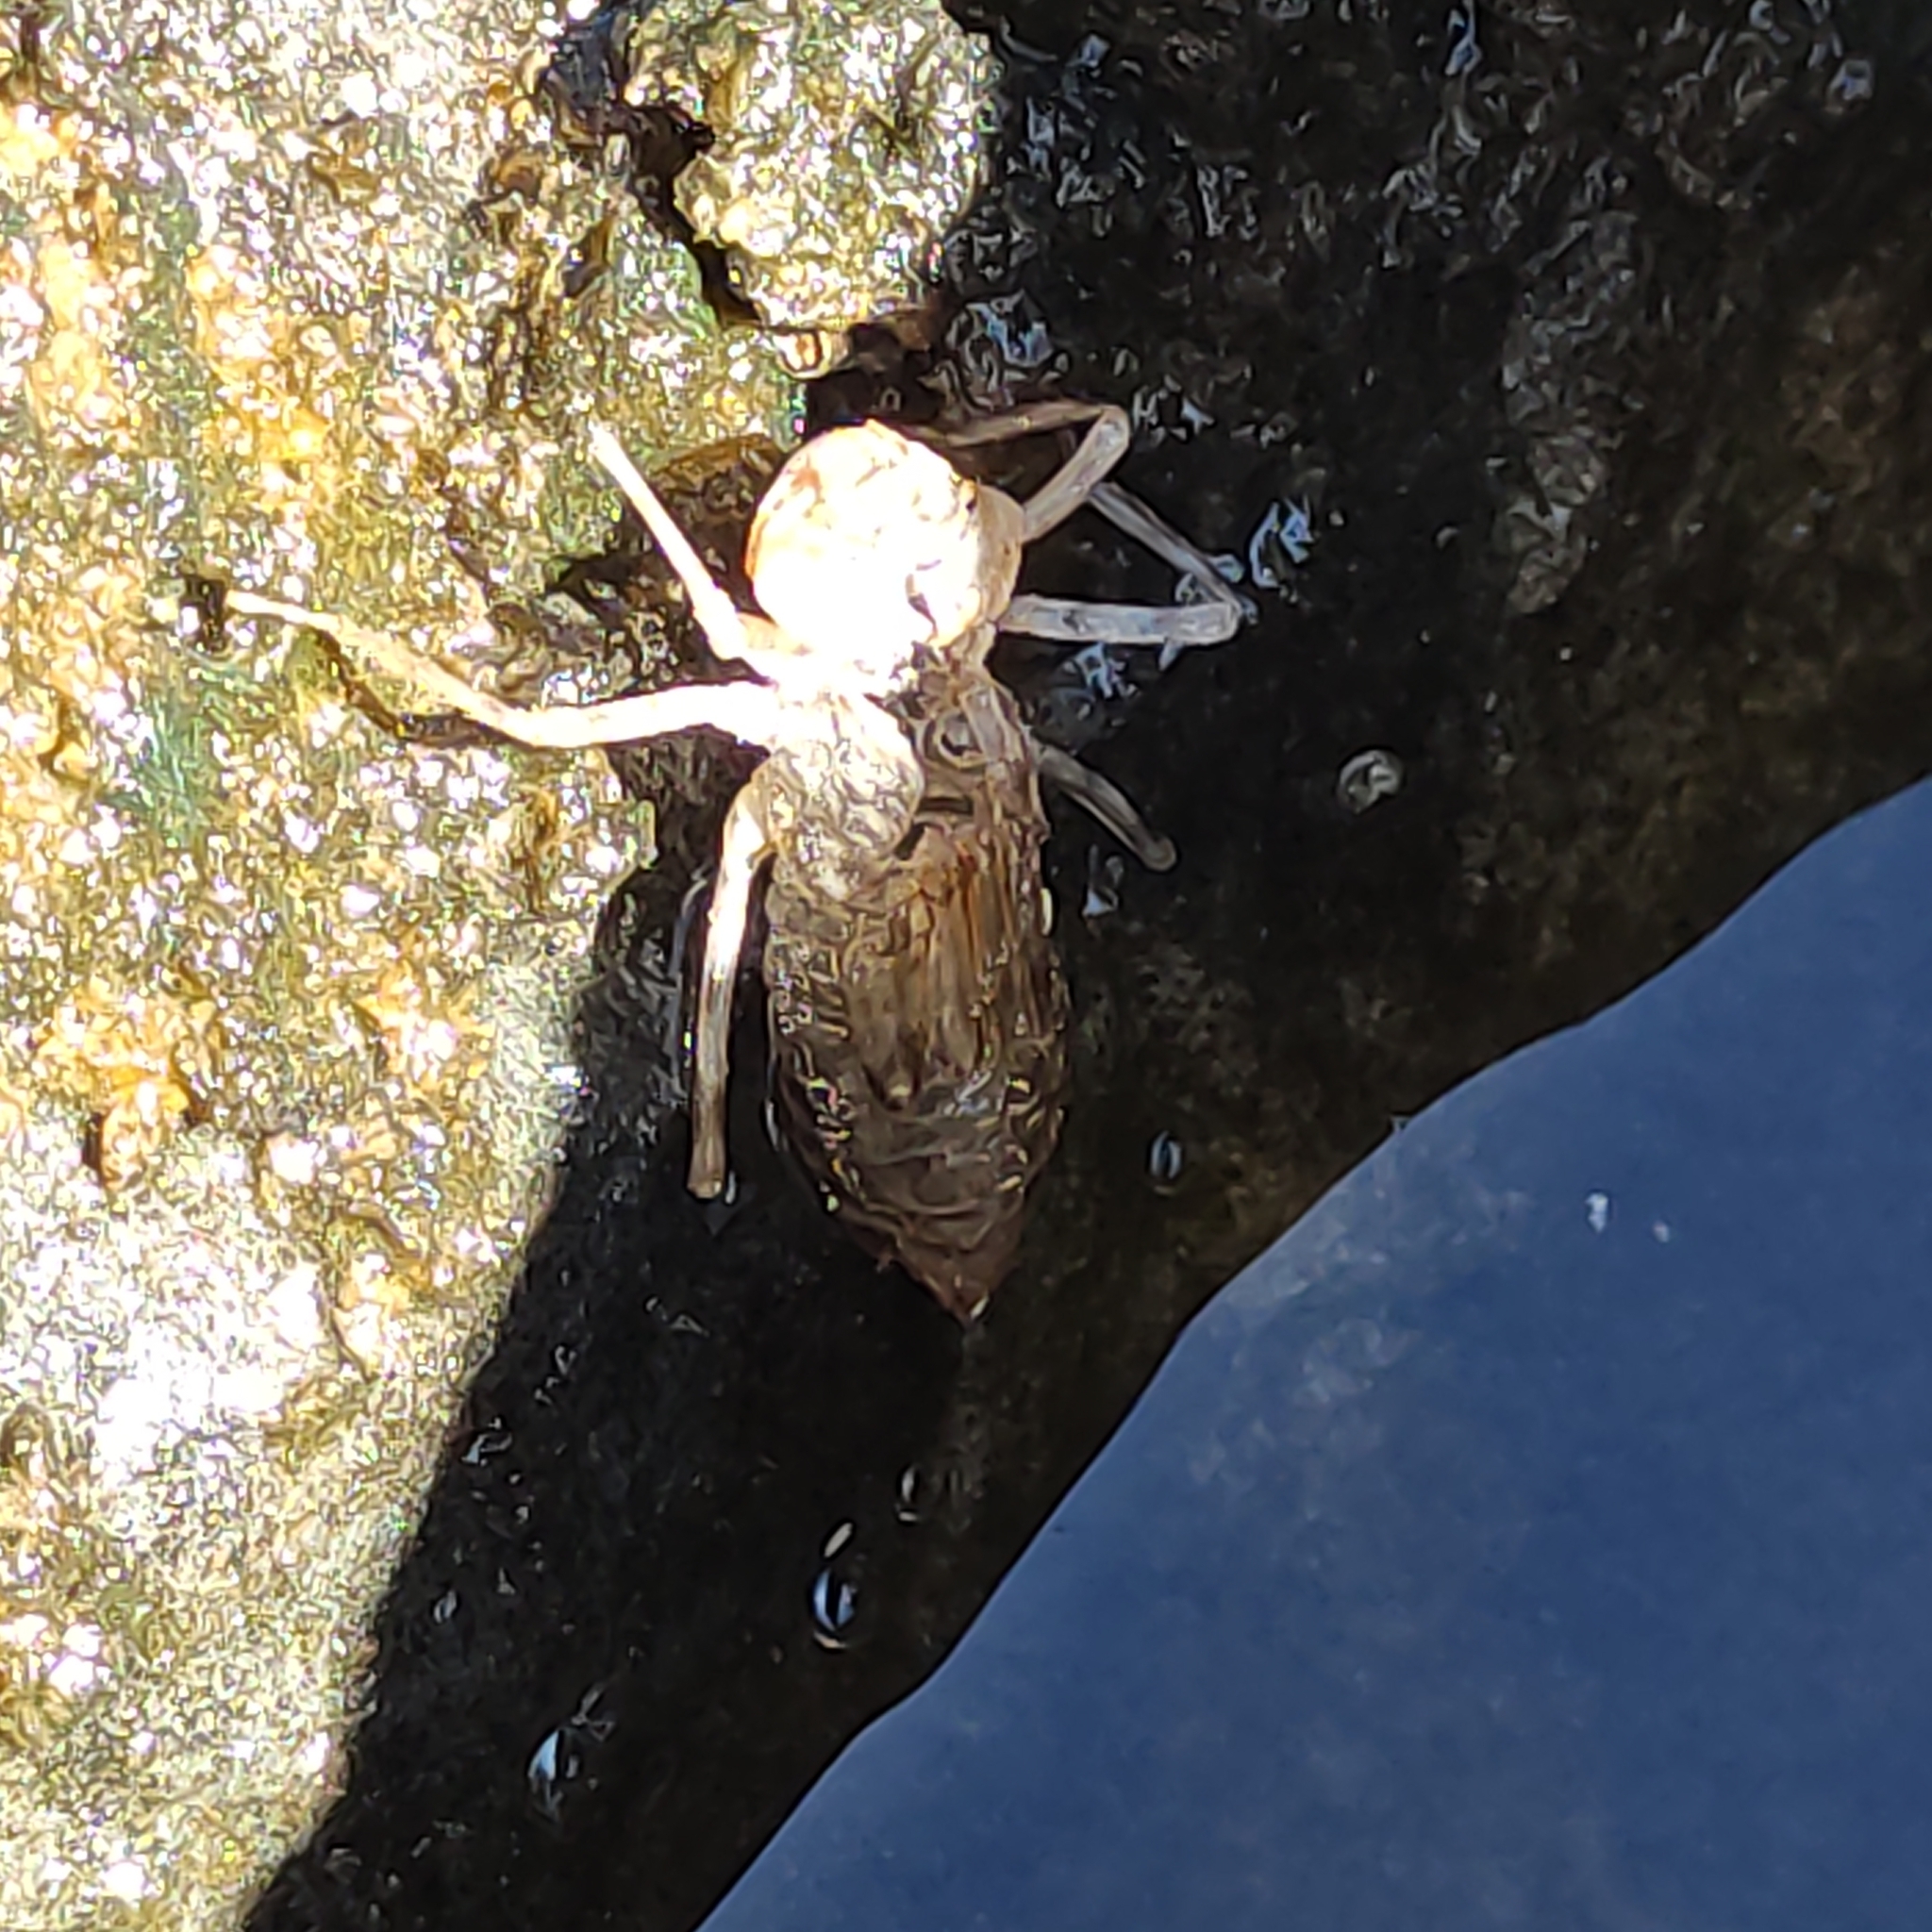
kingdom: Animalia
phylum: Arthropoda
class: Insecta
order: Odonata
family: Corduliidae
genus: Procordulia
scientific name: Procordulia grayi
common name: Yellow spotted dragonfly
